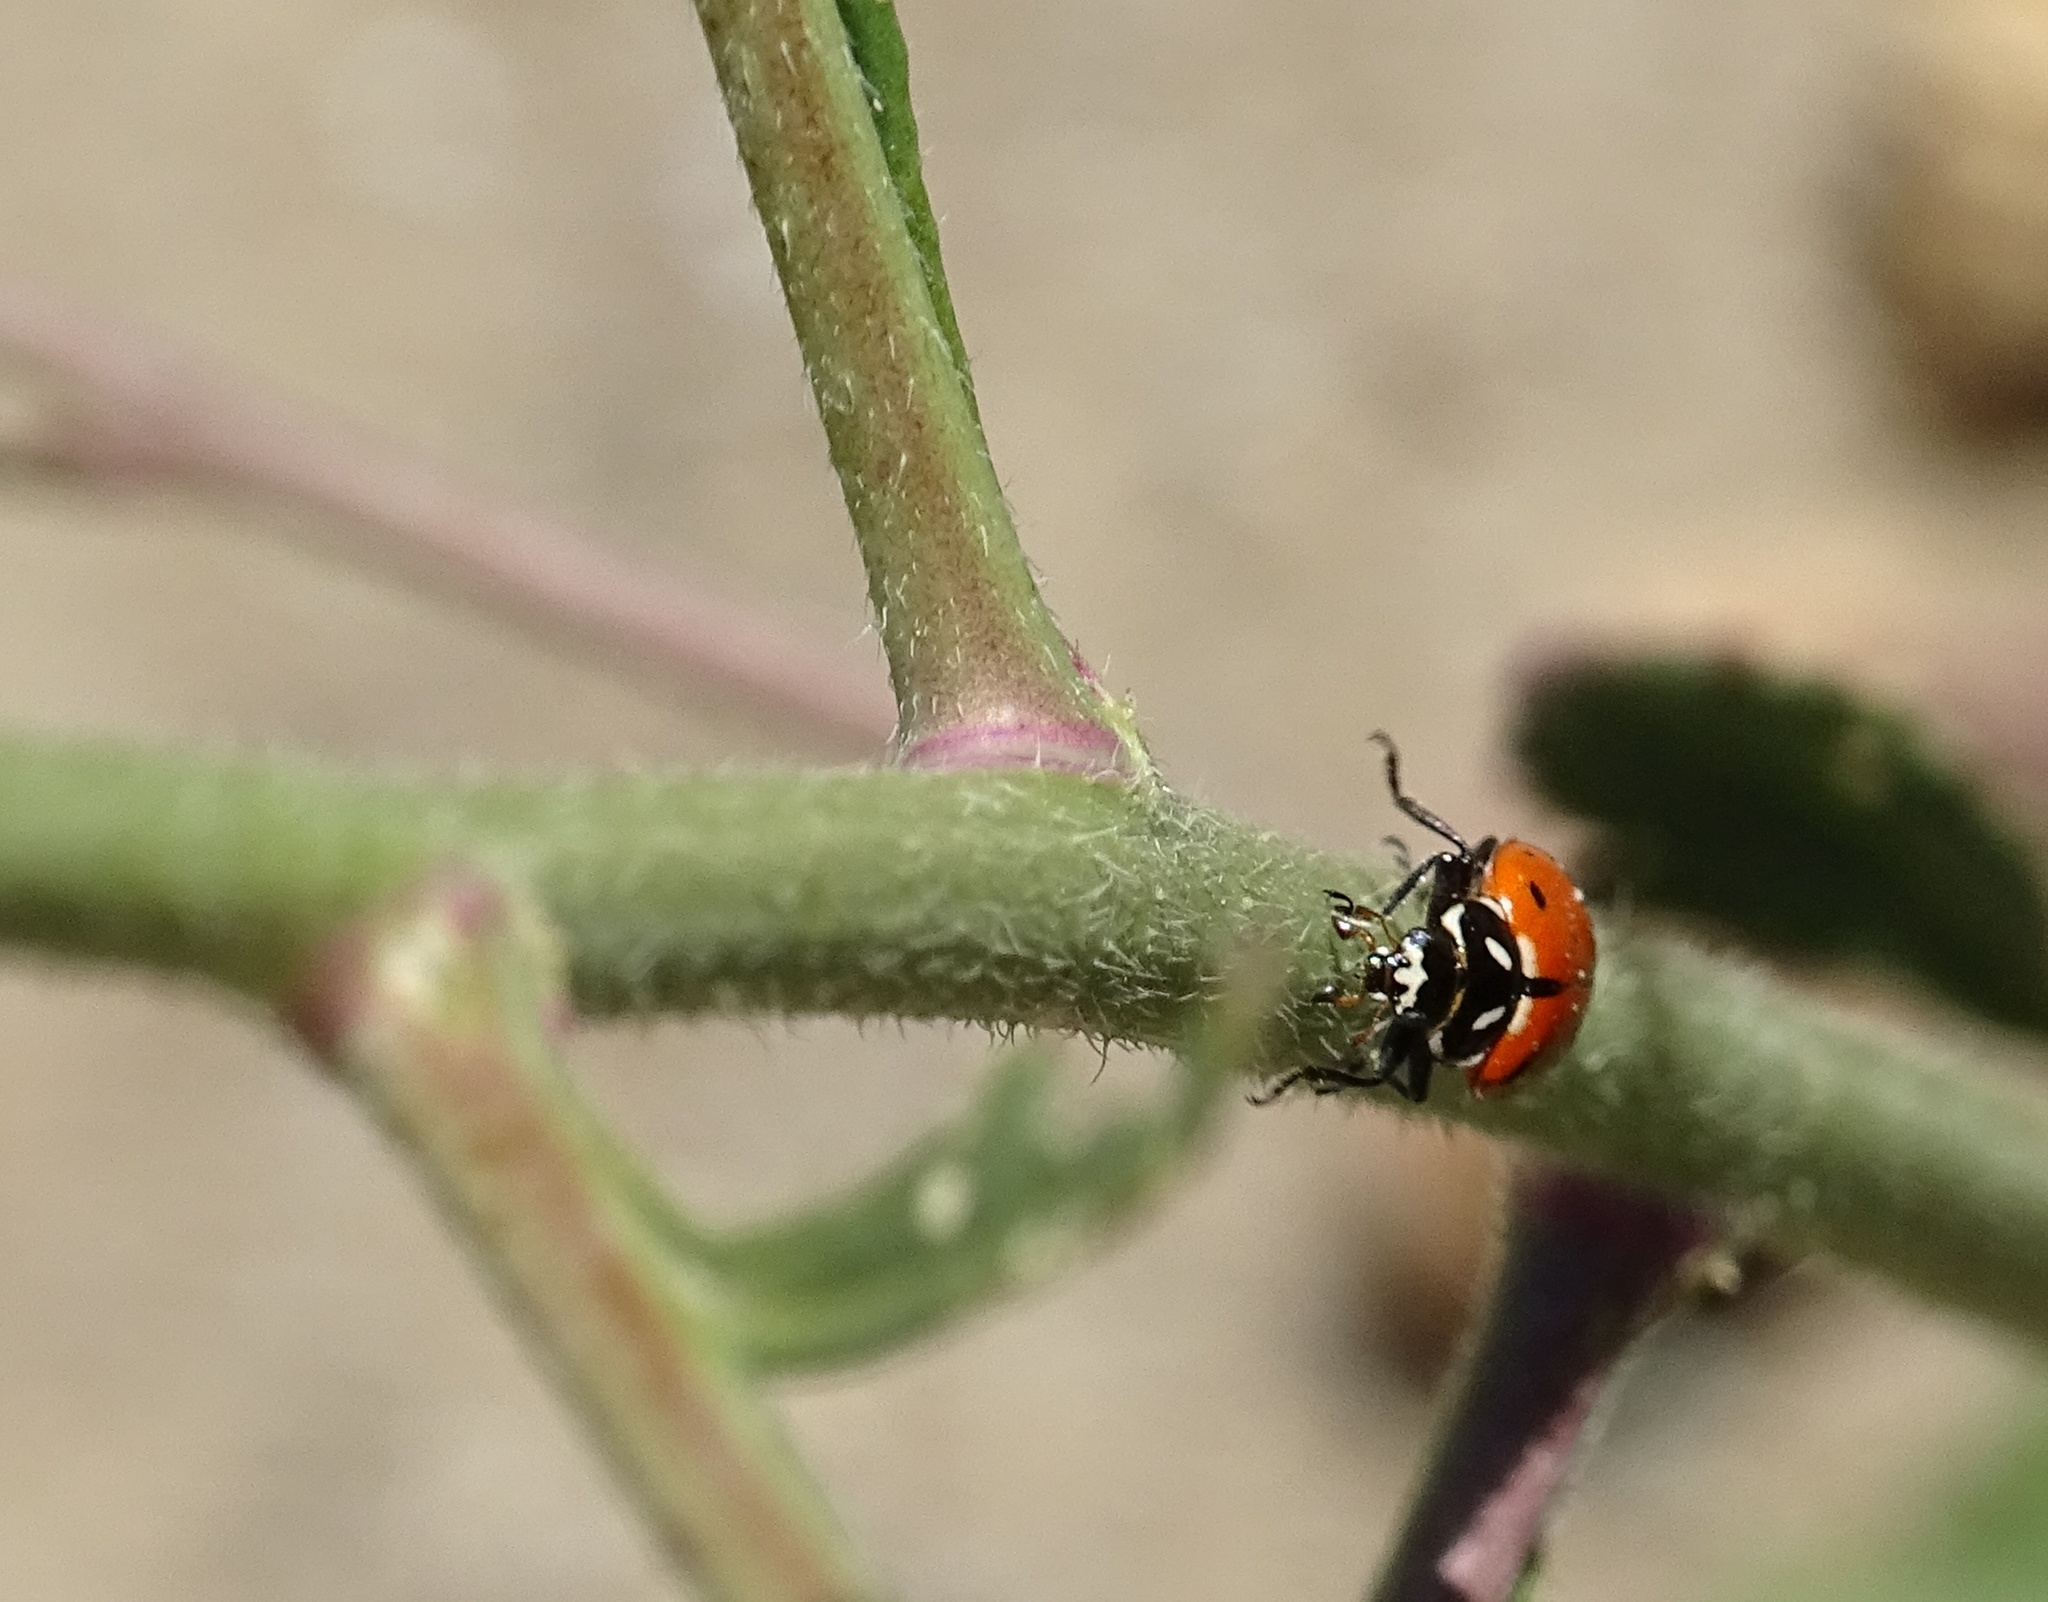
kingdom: Animalia
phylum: Arthropoda
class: Insecta
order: Coleoptera
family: Coccinellidae
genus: Hippodamia
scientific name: Hippodamia convergens
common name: Convergent lady beetle
